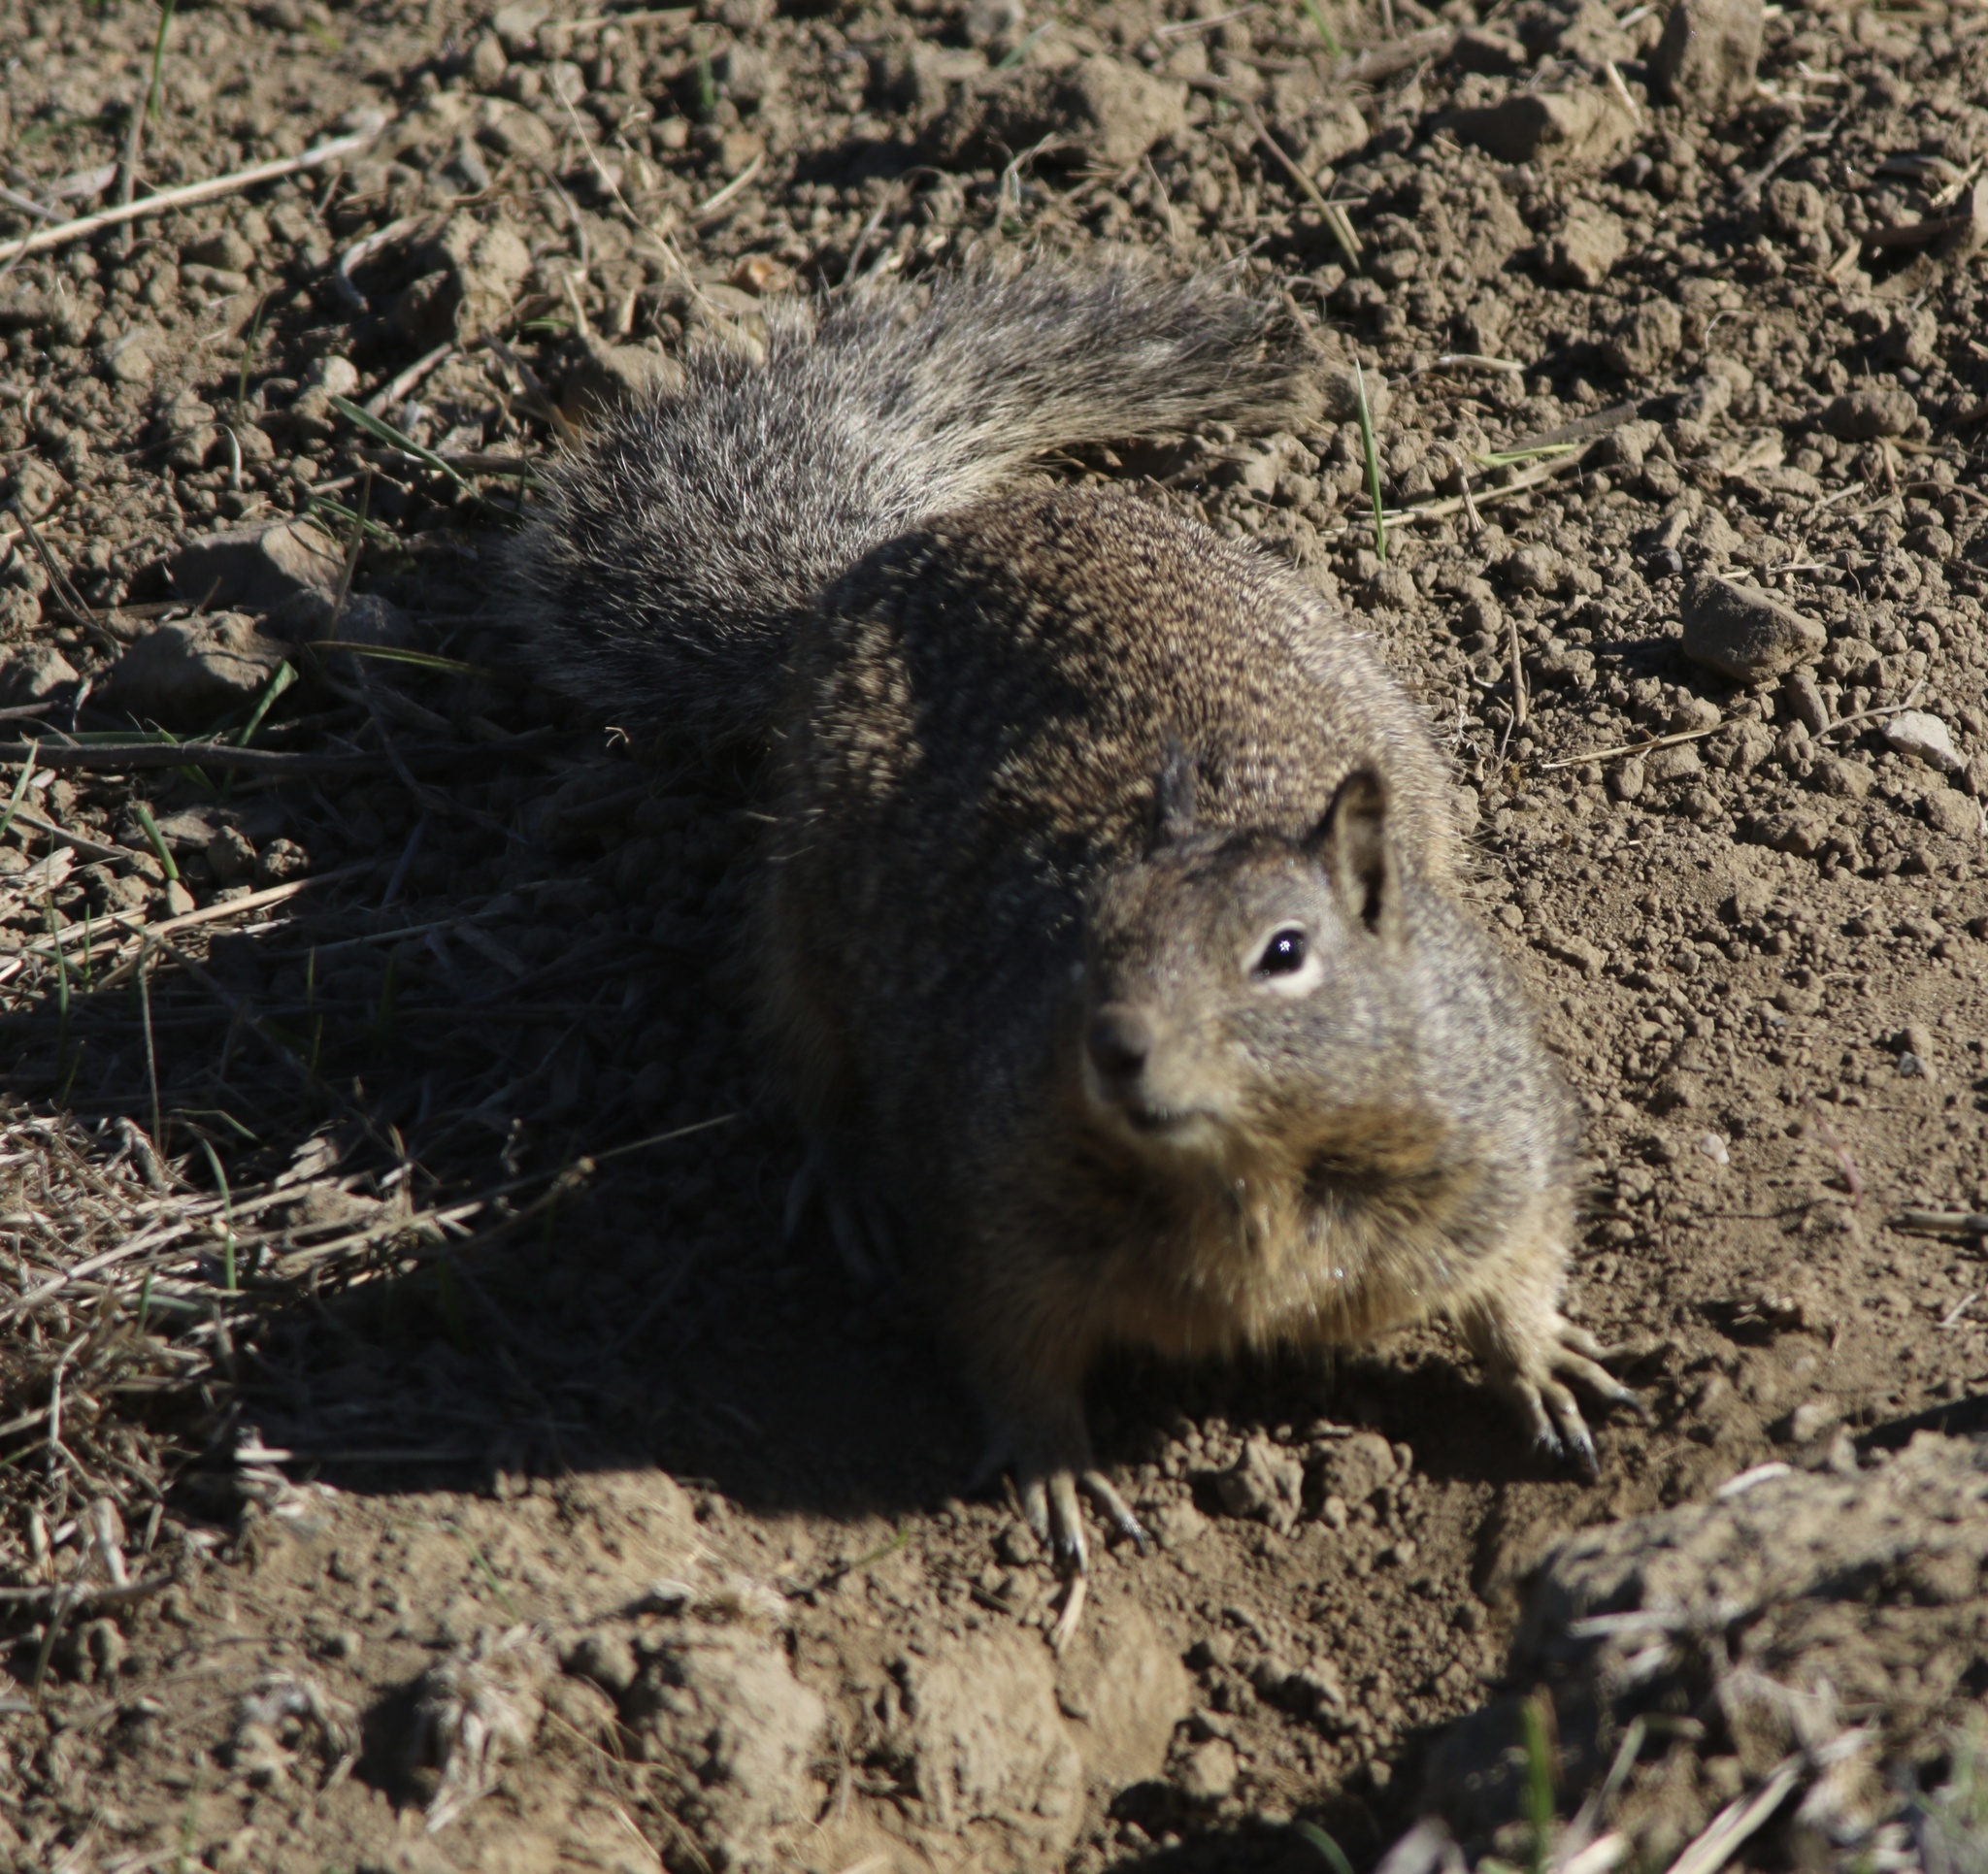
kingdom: Animalia
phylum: Chordata
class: Mammalia
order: Rodentia
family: Sciuridae
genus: Otospermophilus
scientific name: Otospermophilus beecheyi
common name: California ground squirrel
